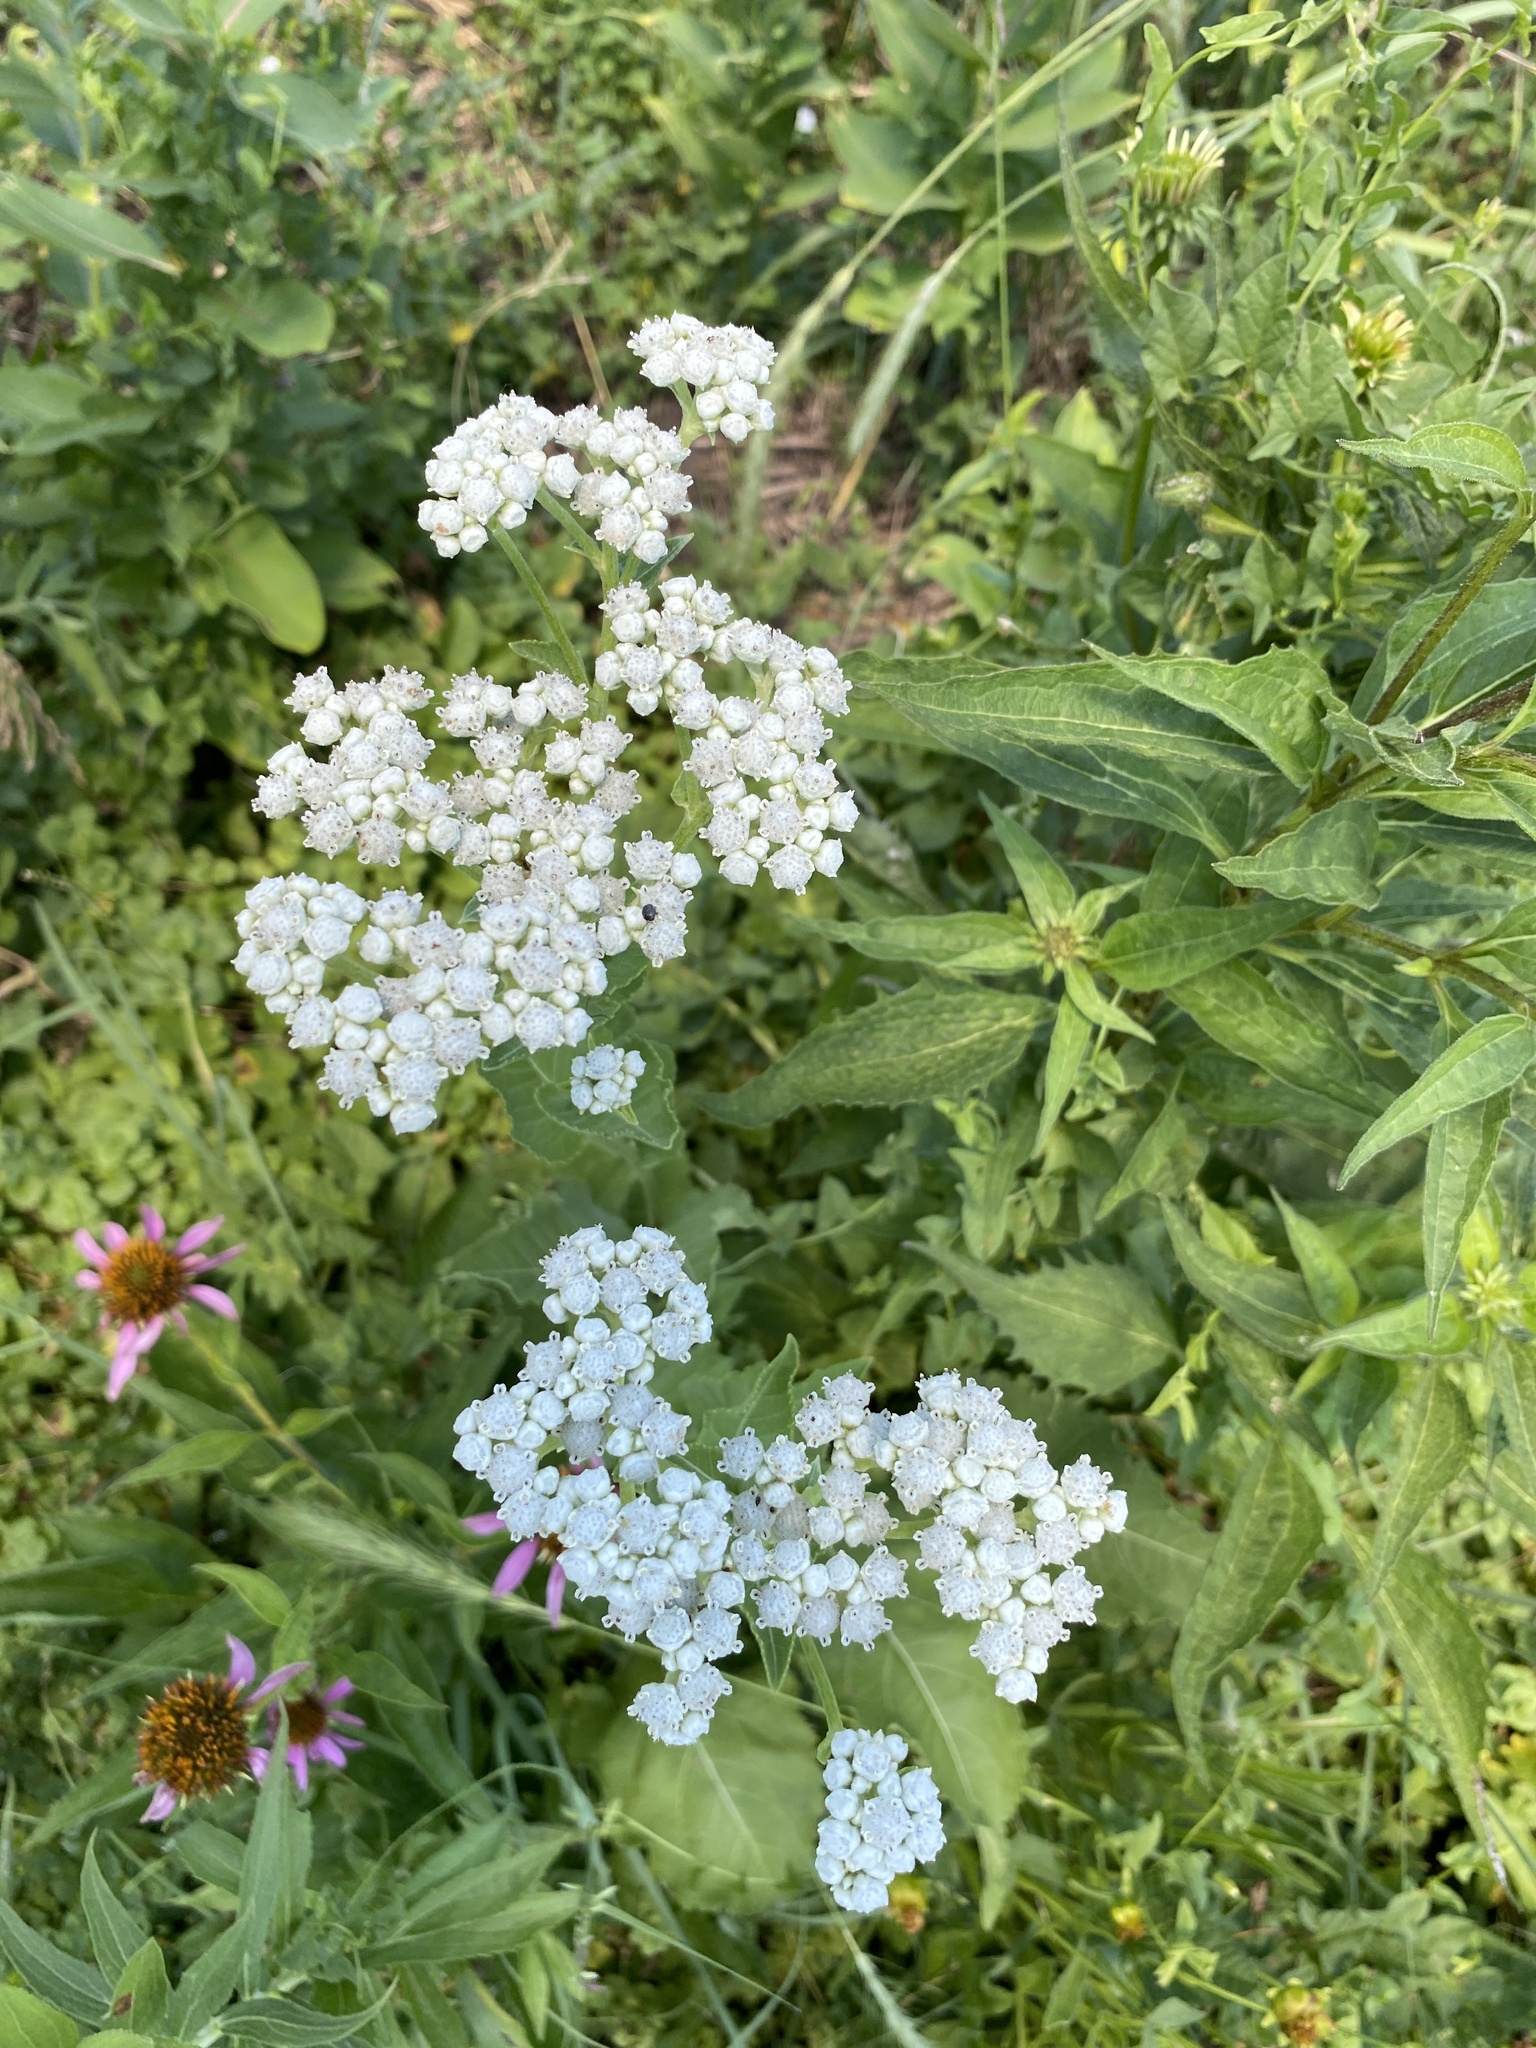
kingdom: Plantae
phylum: Tracheophyta
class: Magnoliopsida
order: Asterales
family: Asteraceae
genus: Parthenium
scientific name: Parthenium integrifolium
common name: American feverfew
